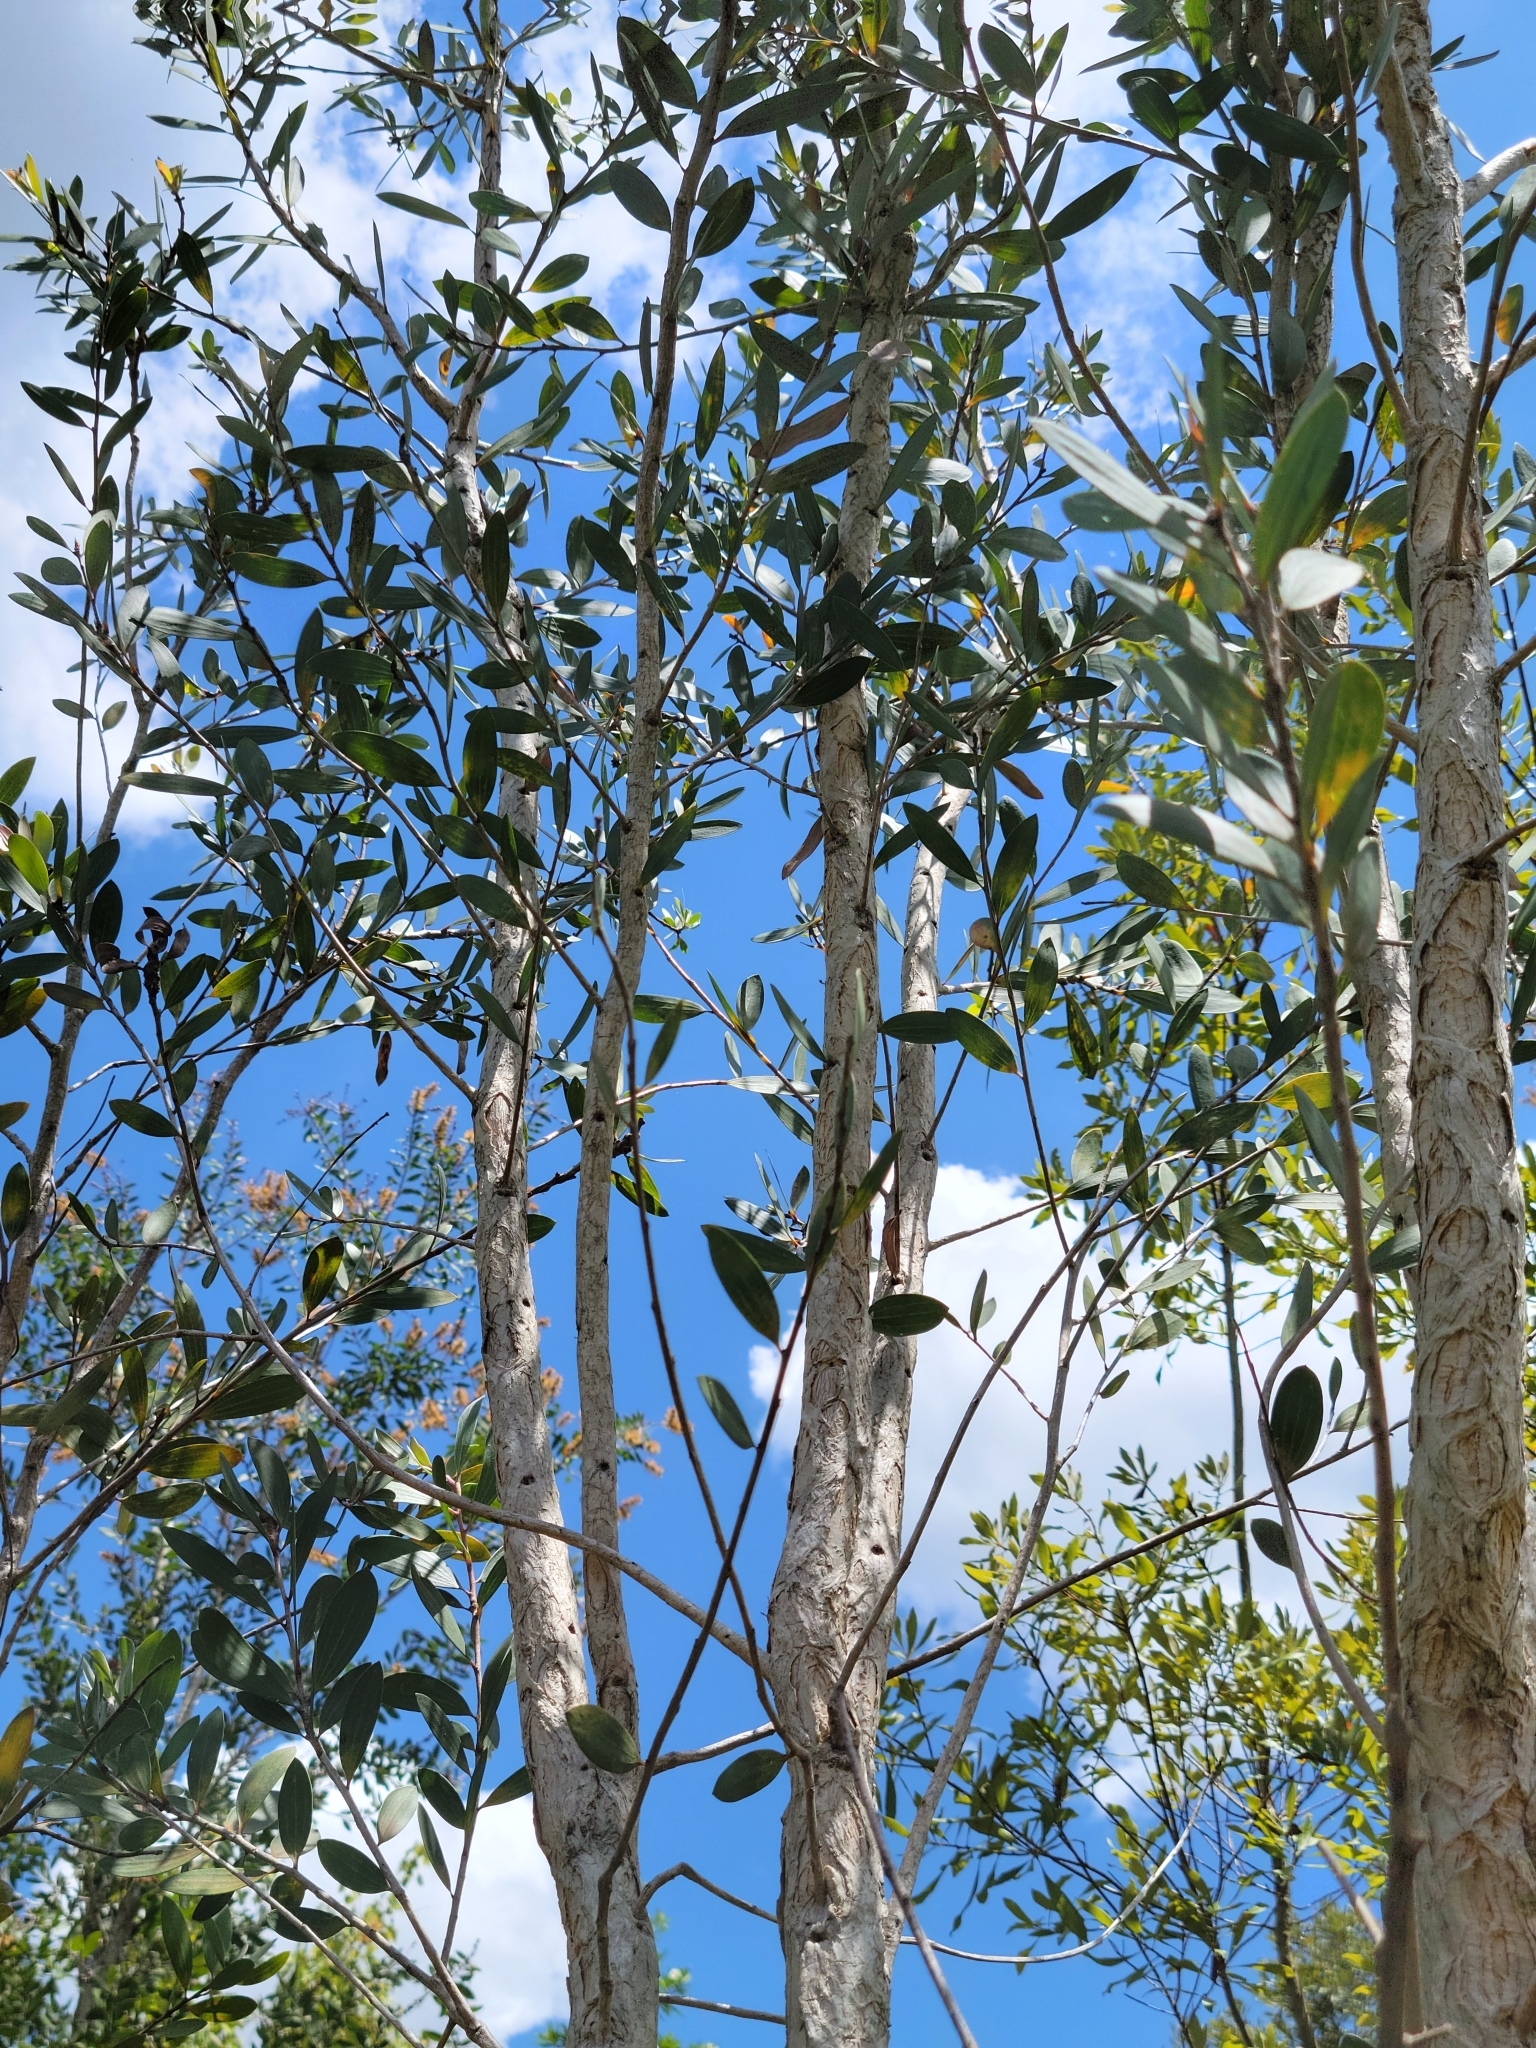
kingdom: Plantae
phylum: Tracheophyta
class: Magnoliopsida
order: Myrtales
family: Myrtaceae
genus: Melaleuca
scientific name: Melaleuca quinquenervia
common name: Punktree
